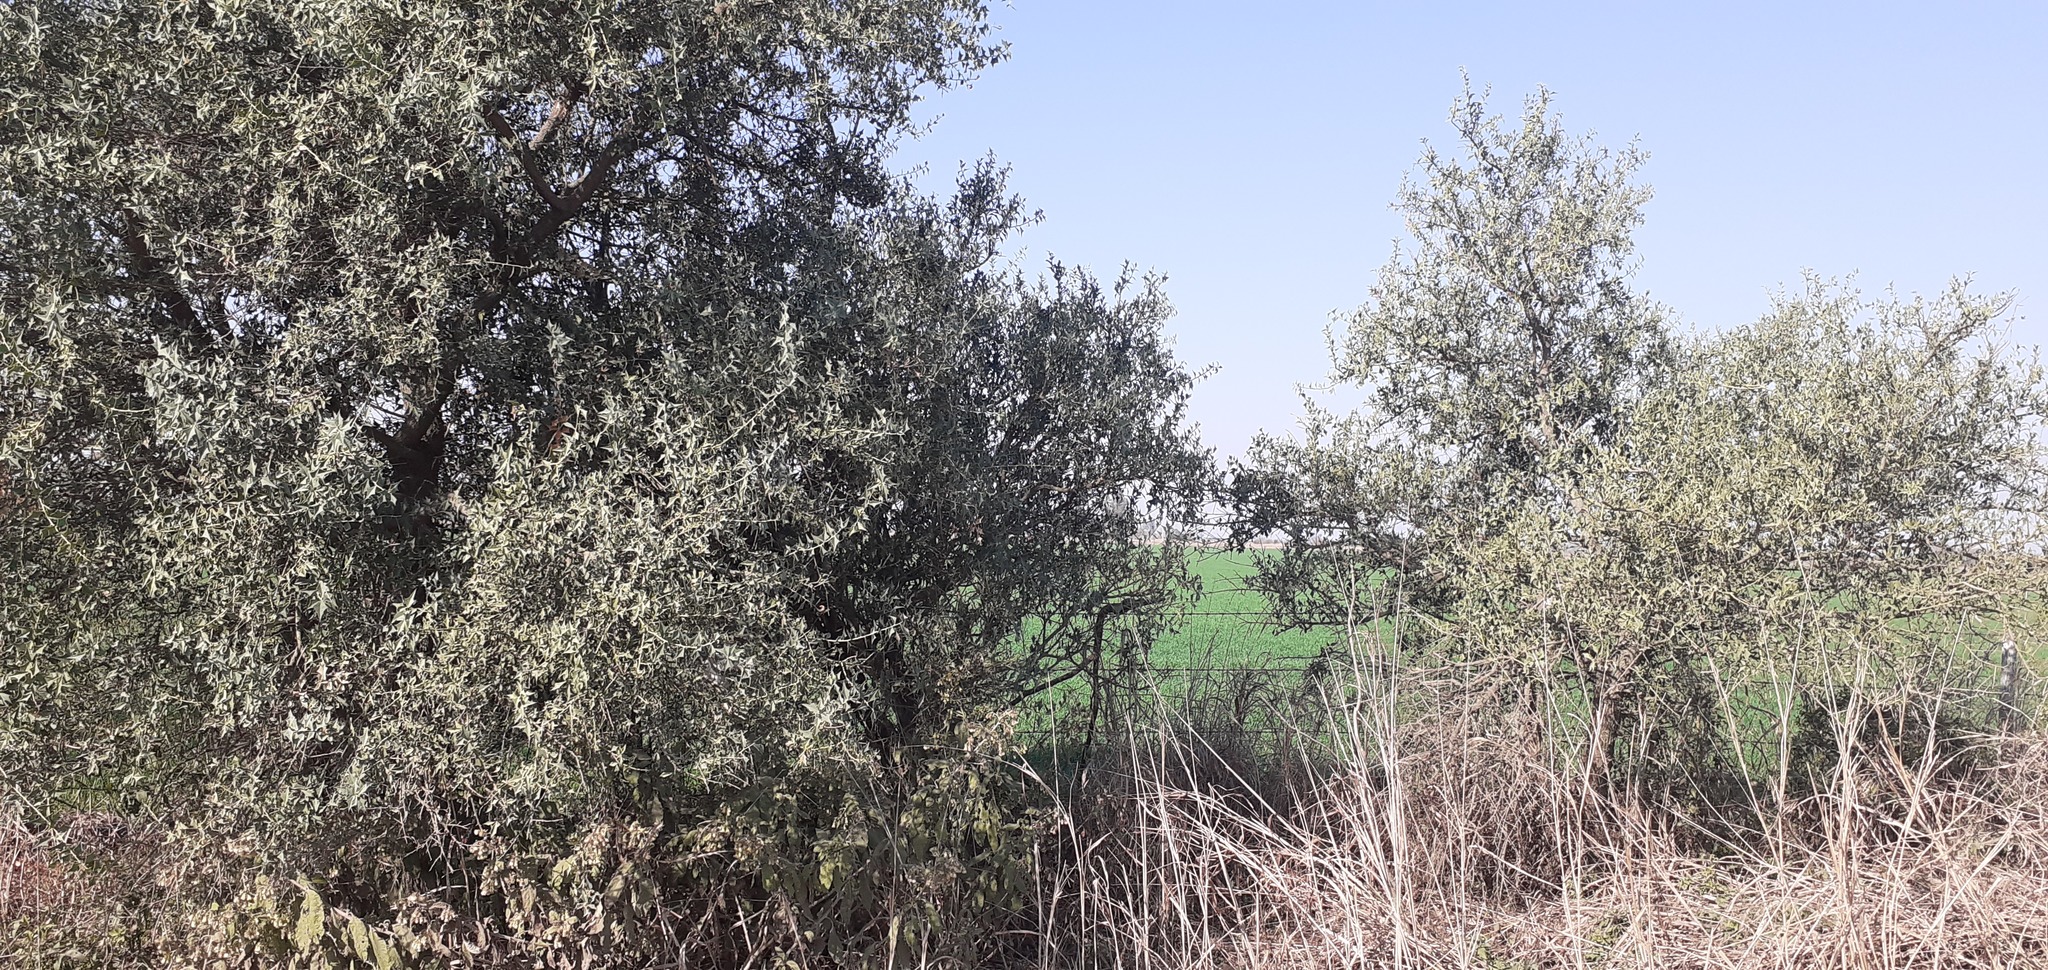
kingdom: Plantae
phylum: Tracheophyta
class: Magnoliopsida
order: Santalales
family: Cervantesiaceae
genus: Jodina
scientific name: Jodina rhombifolia
